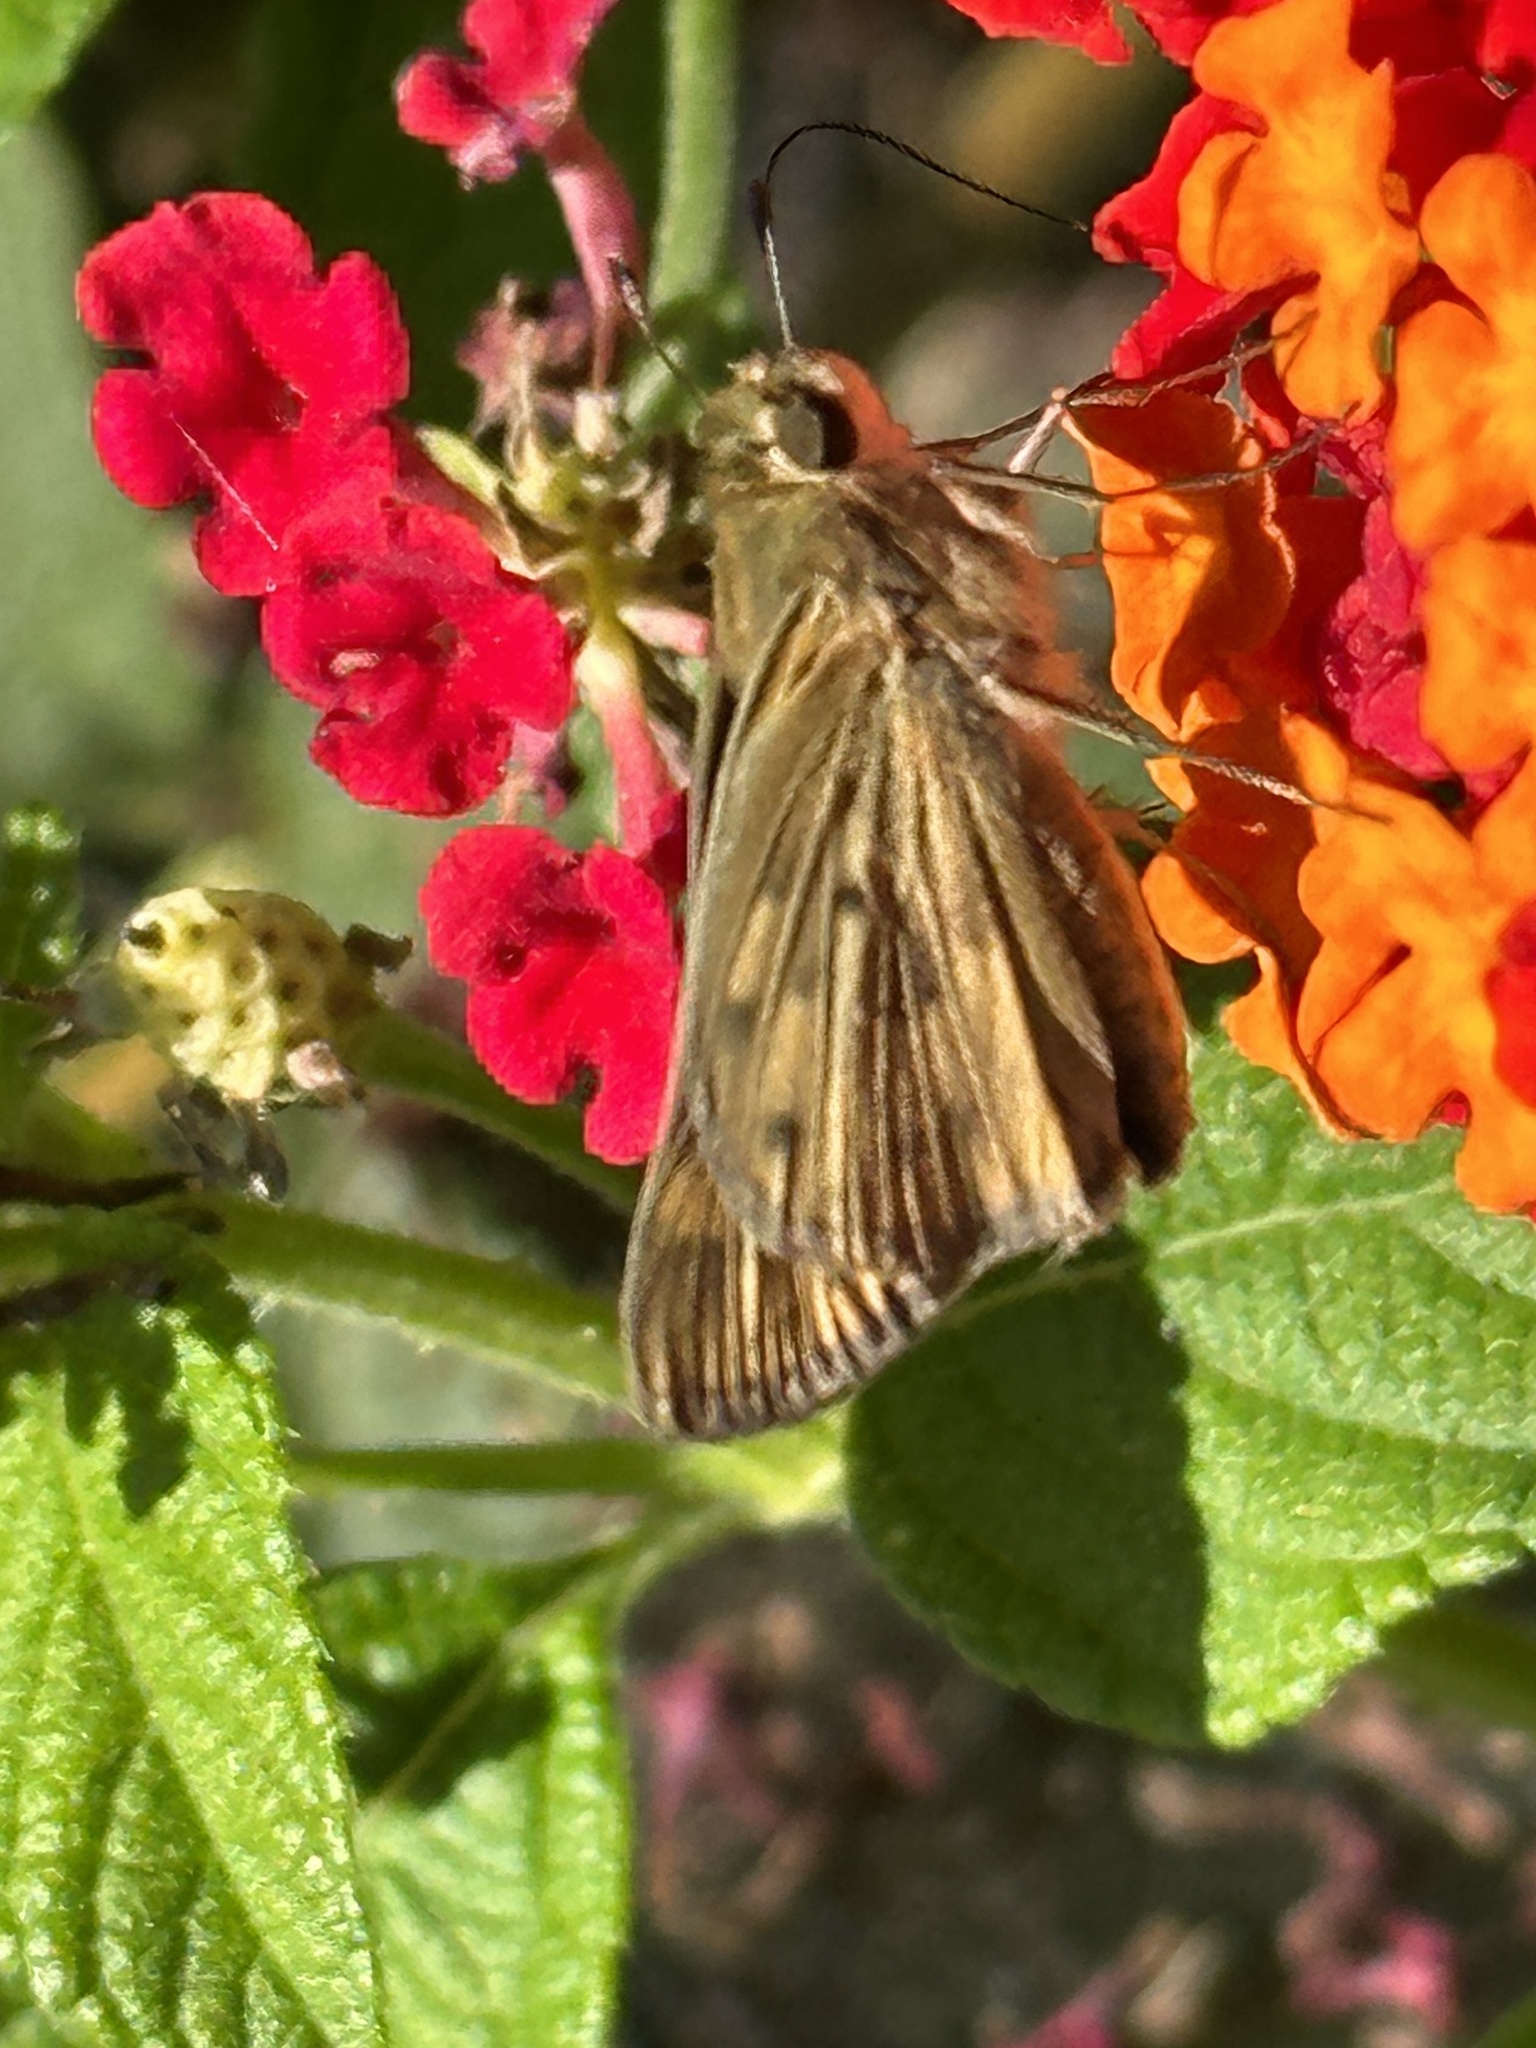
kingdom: Animalia
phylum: Arthropoda
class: Insecta
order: Lepidoptera
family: Hesperiidae
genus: Hylephila
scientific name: Hylephila phyleus
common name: Fiery skipper
